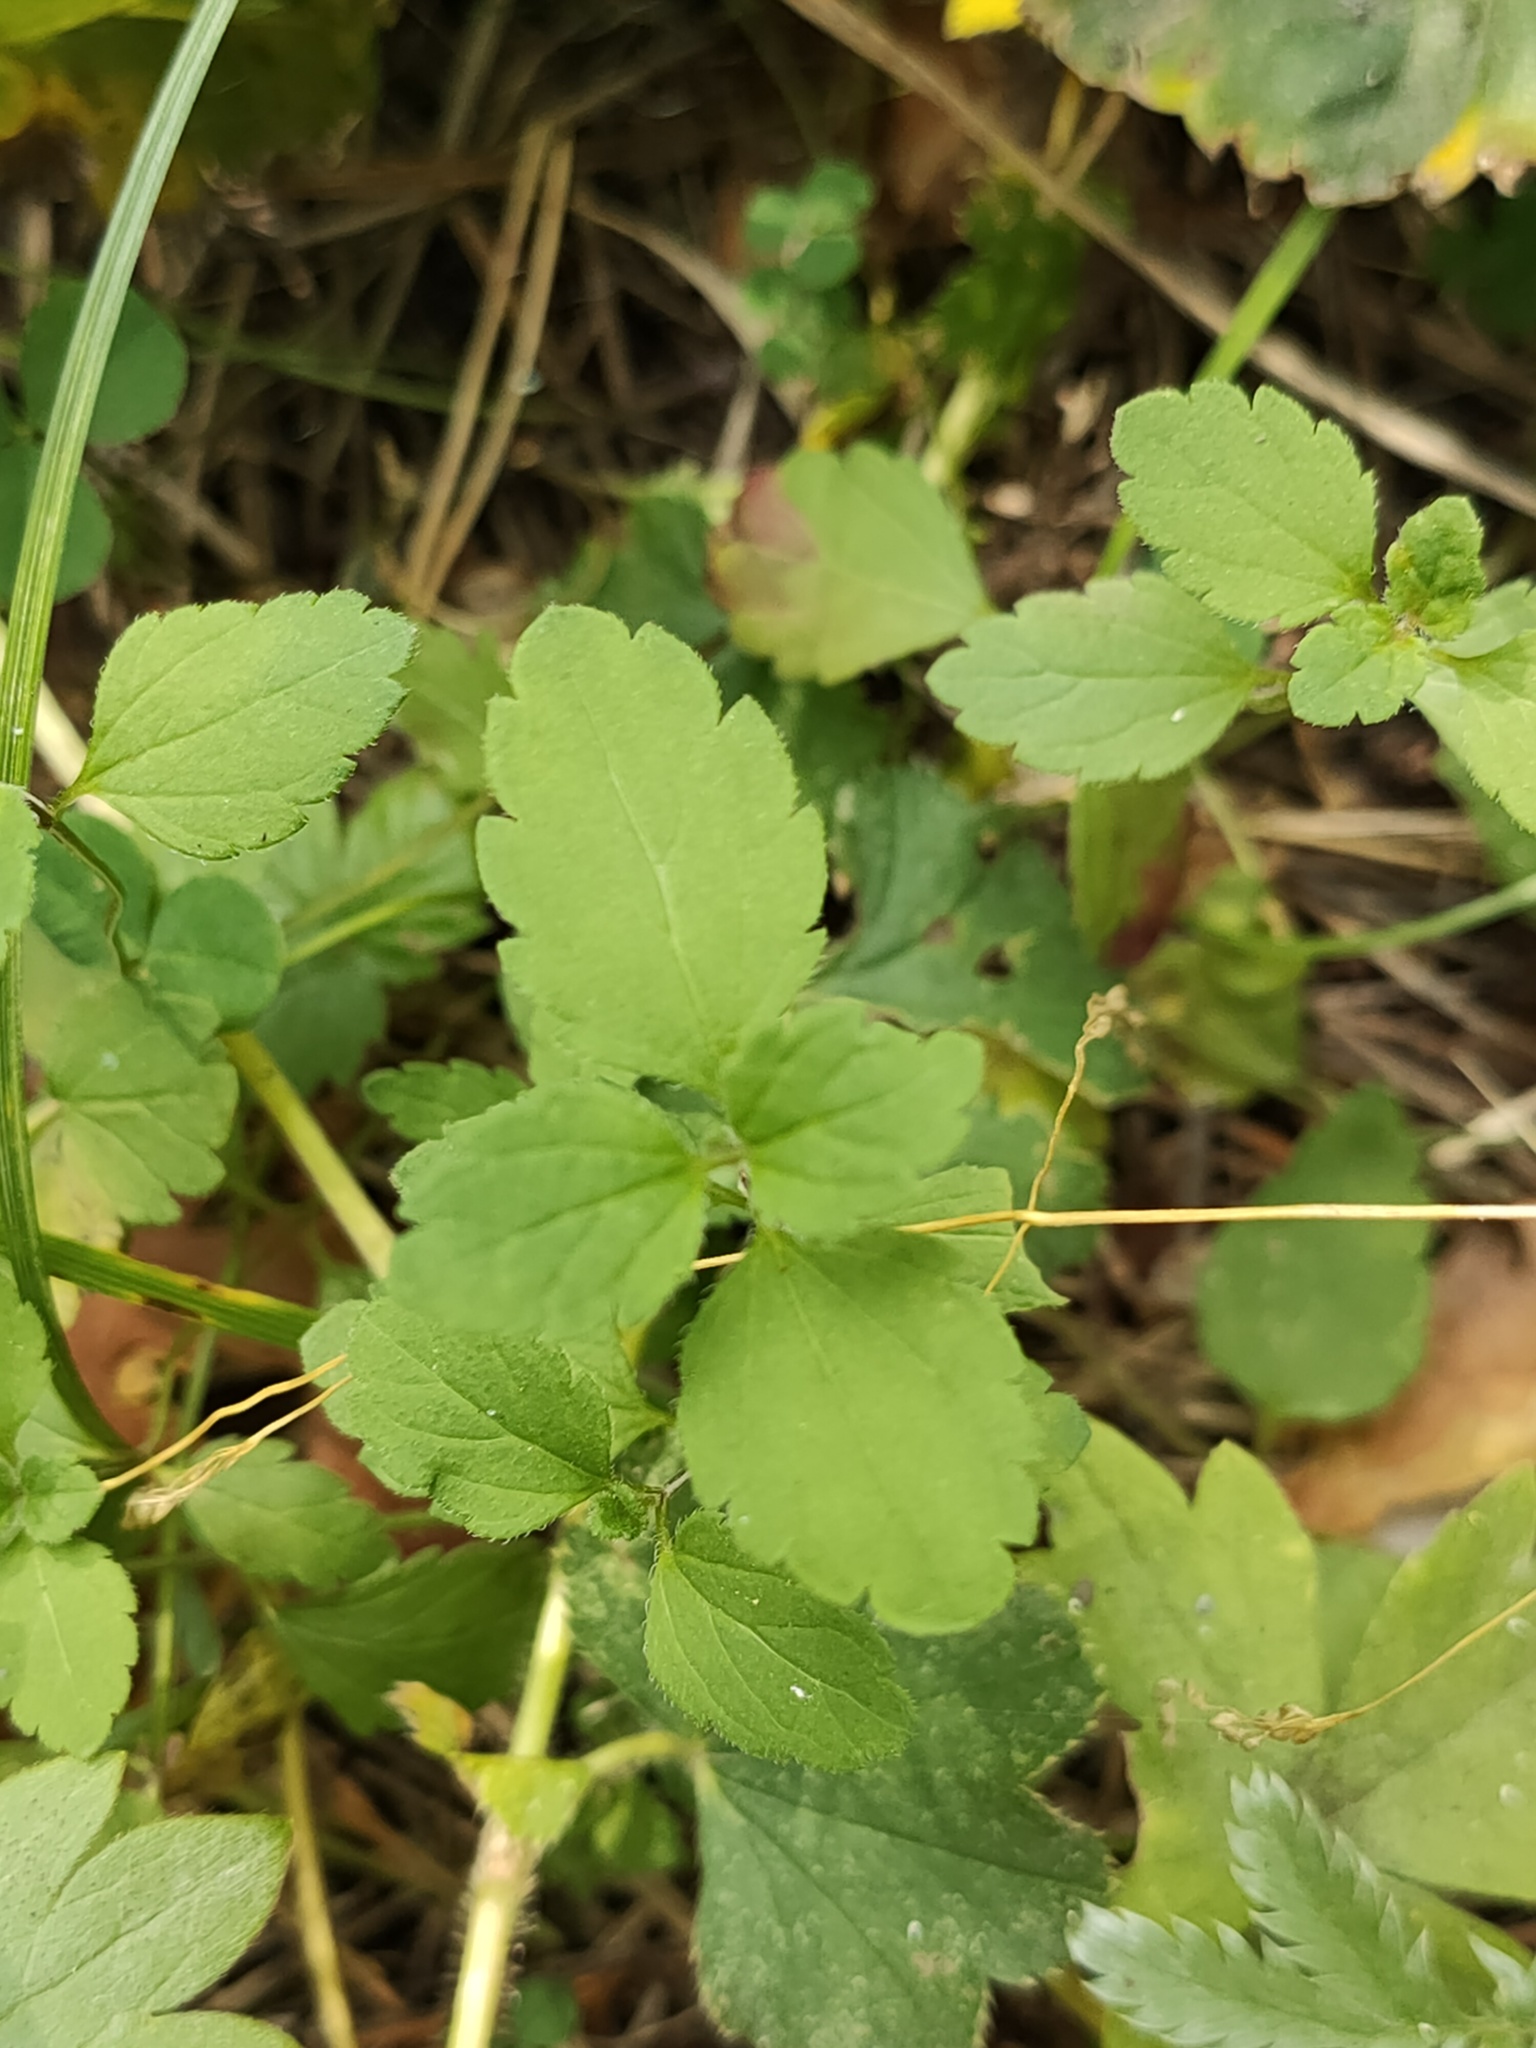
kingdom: Plantae
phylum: Tracheophyta
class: Magnoliopsida
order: Lamiales
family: Plantaginaceae
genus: Veronica
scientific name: Veronica chamaedrys
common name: Germander speedwell
